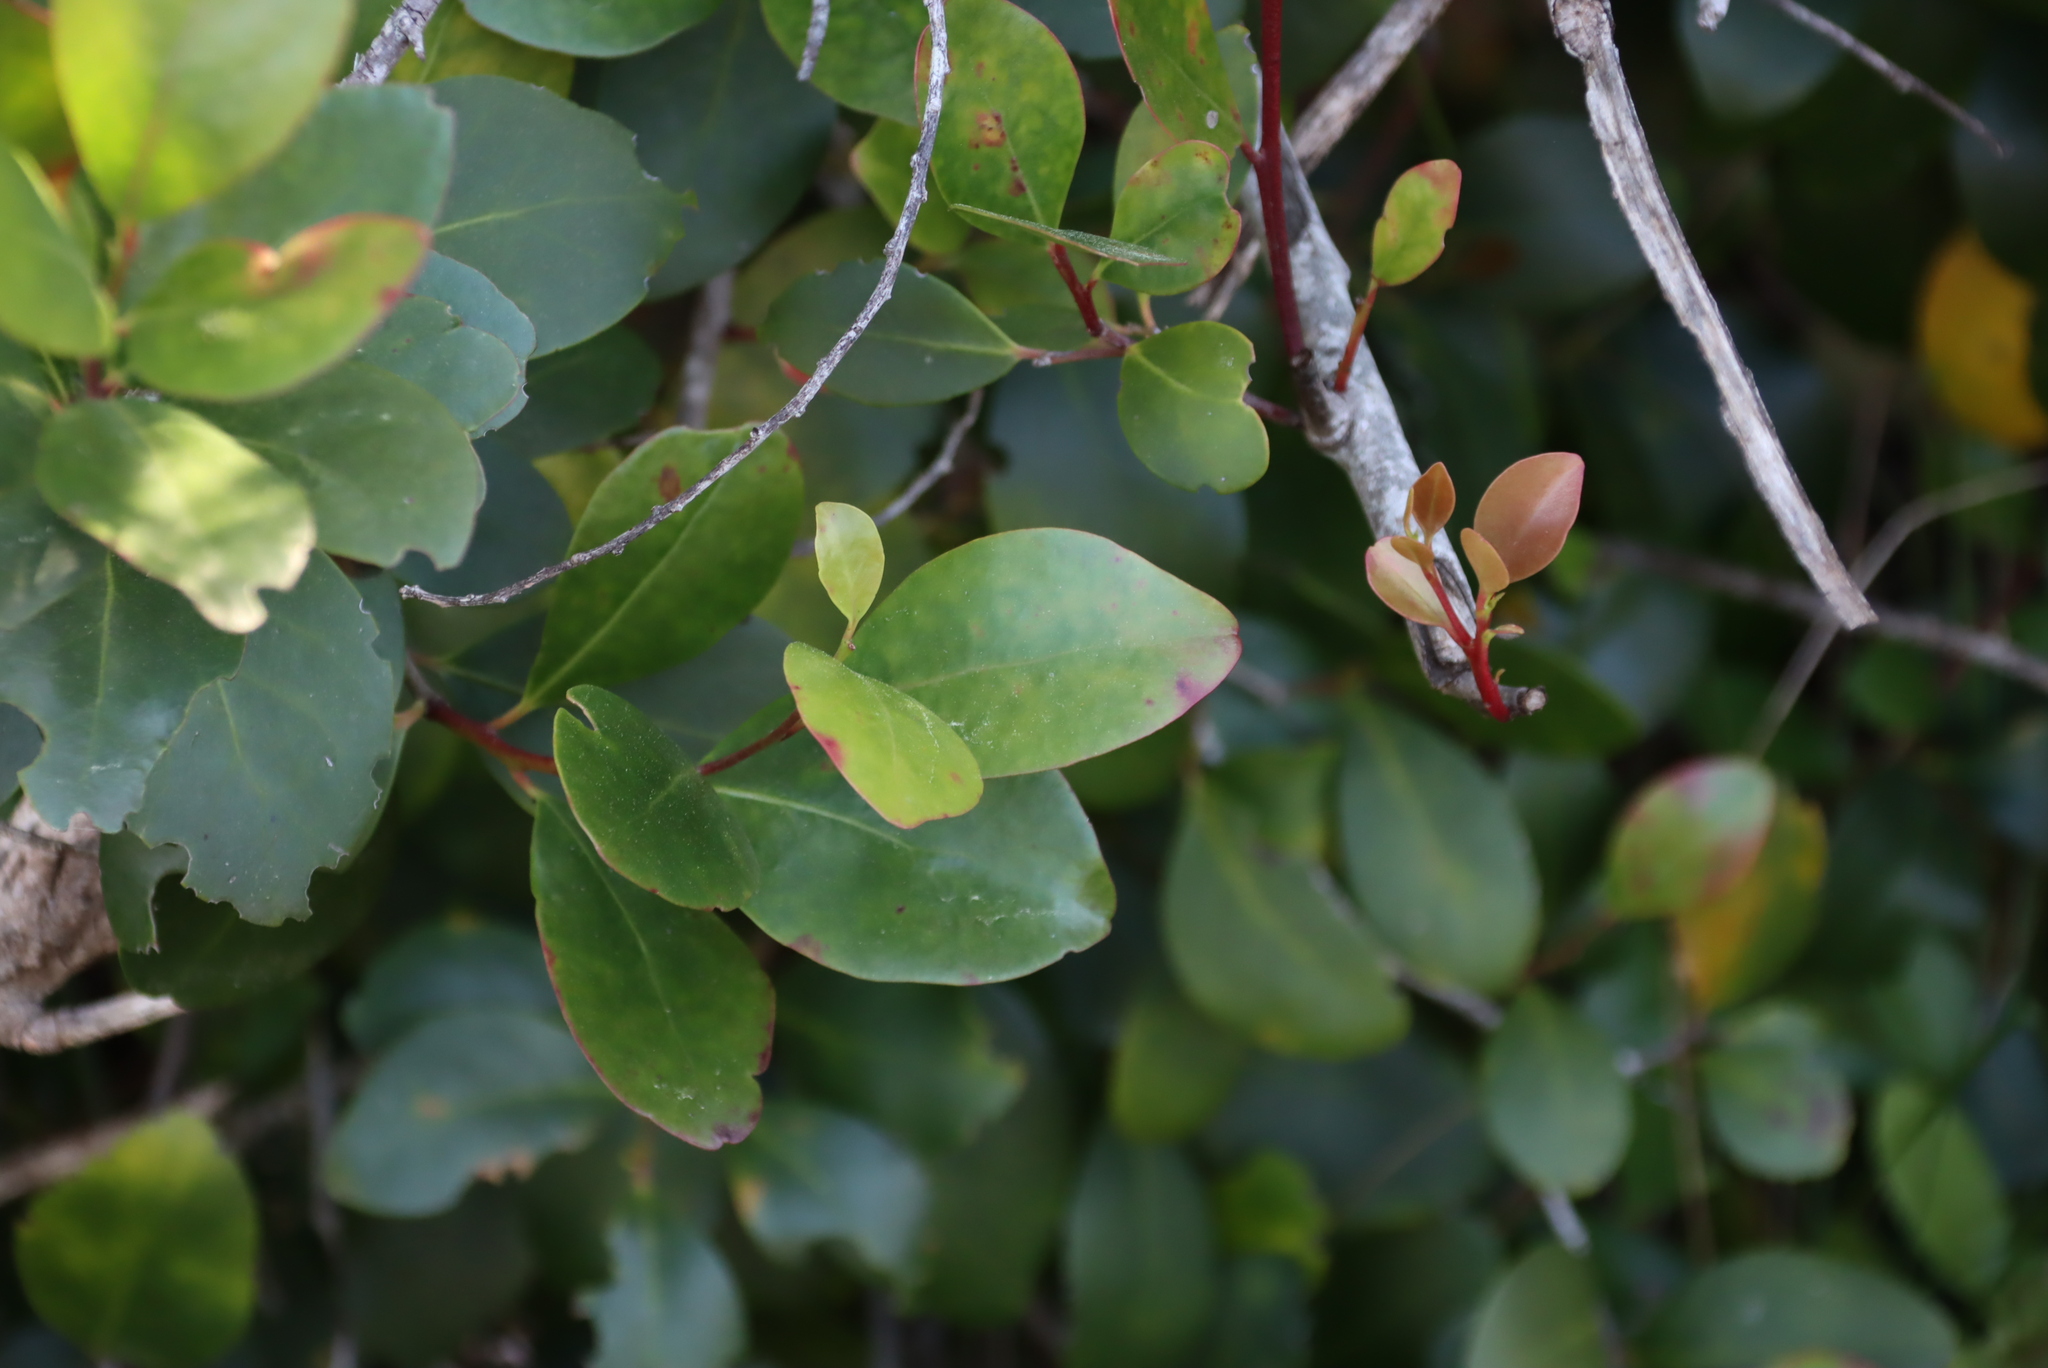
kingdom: Plantae
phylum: Tracheophyta
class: Magnoliopsida
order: Celastrales
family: Celastraceae
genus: Pterocelastrus
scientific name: Pterocelastrus tricuspidatus
